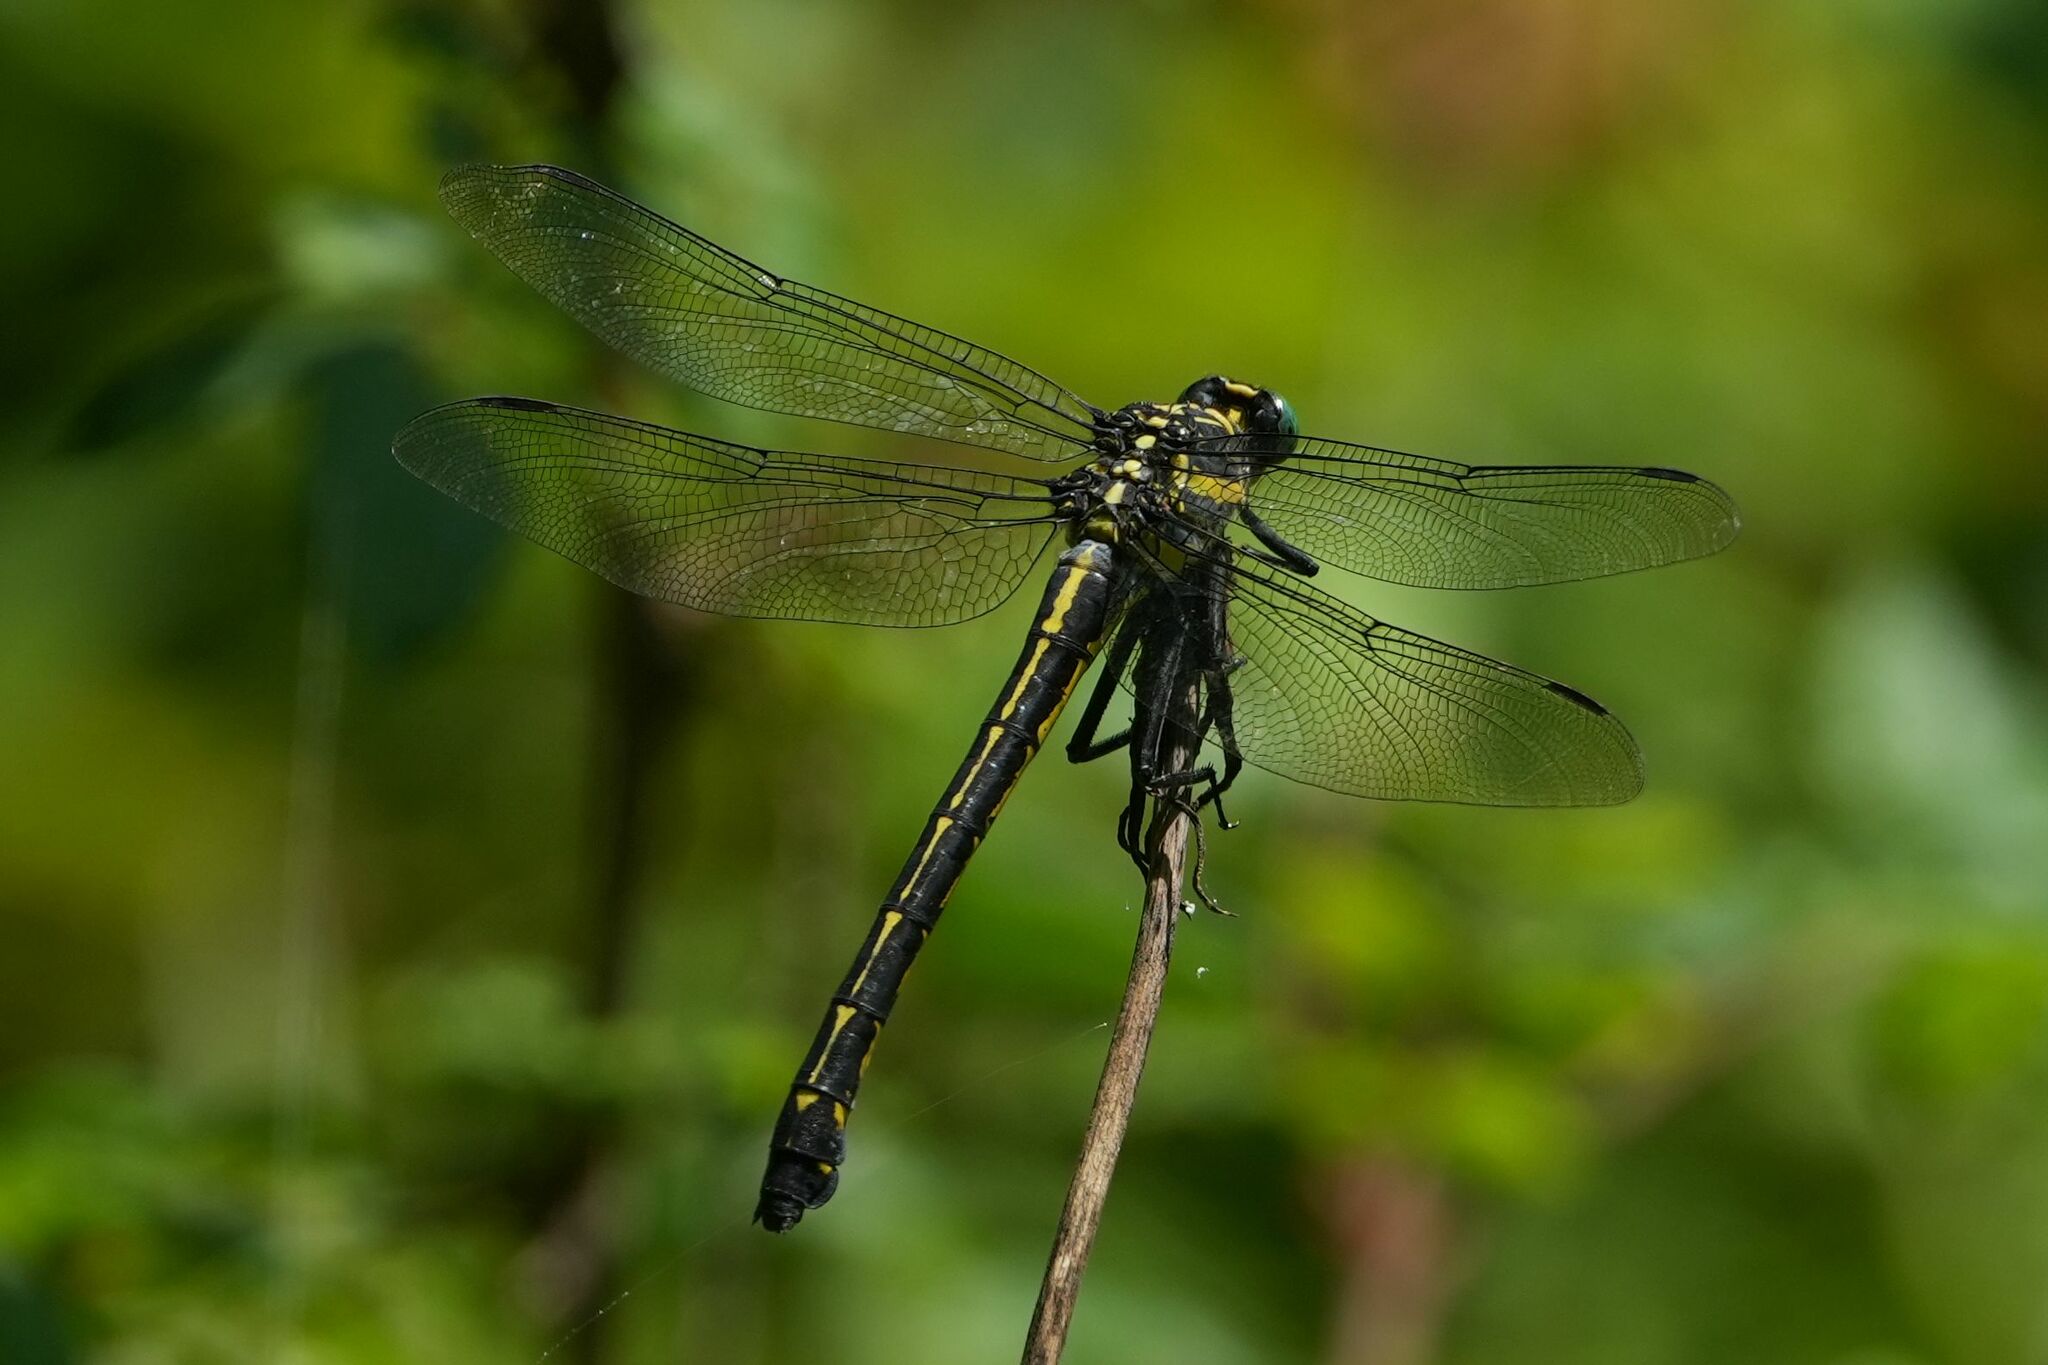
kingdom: Animalia
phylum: Arthropoda
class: Insecta
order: Odonata
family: Gomphidae
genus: Hagenius
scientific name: Hagenius brevistylus
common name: Dragonhunter
